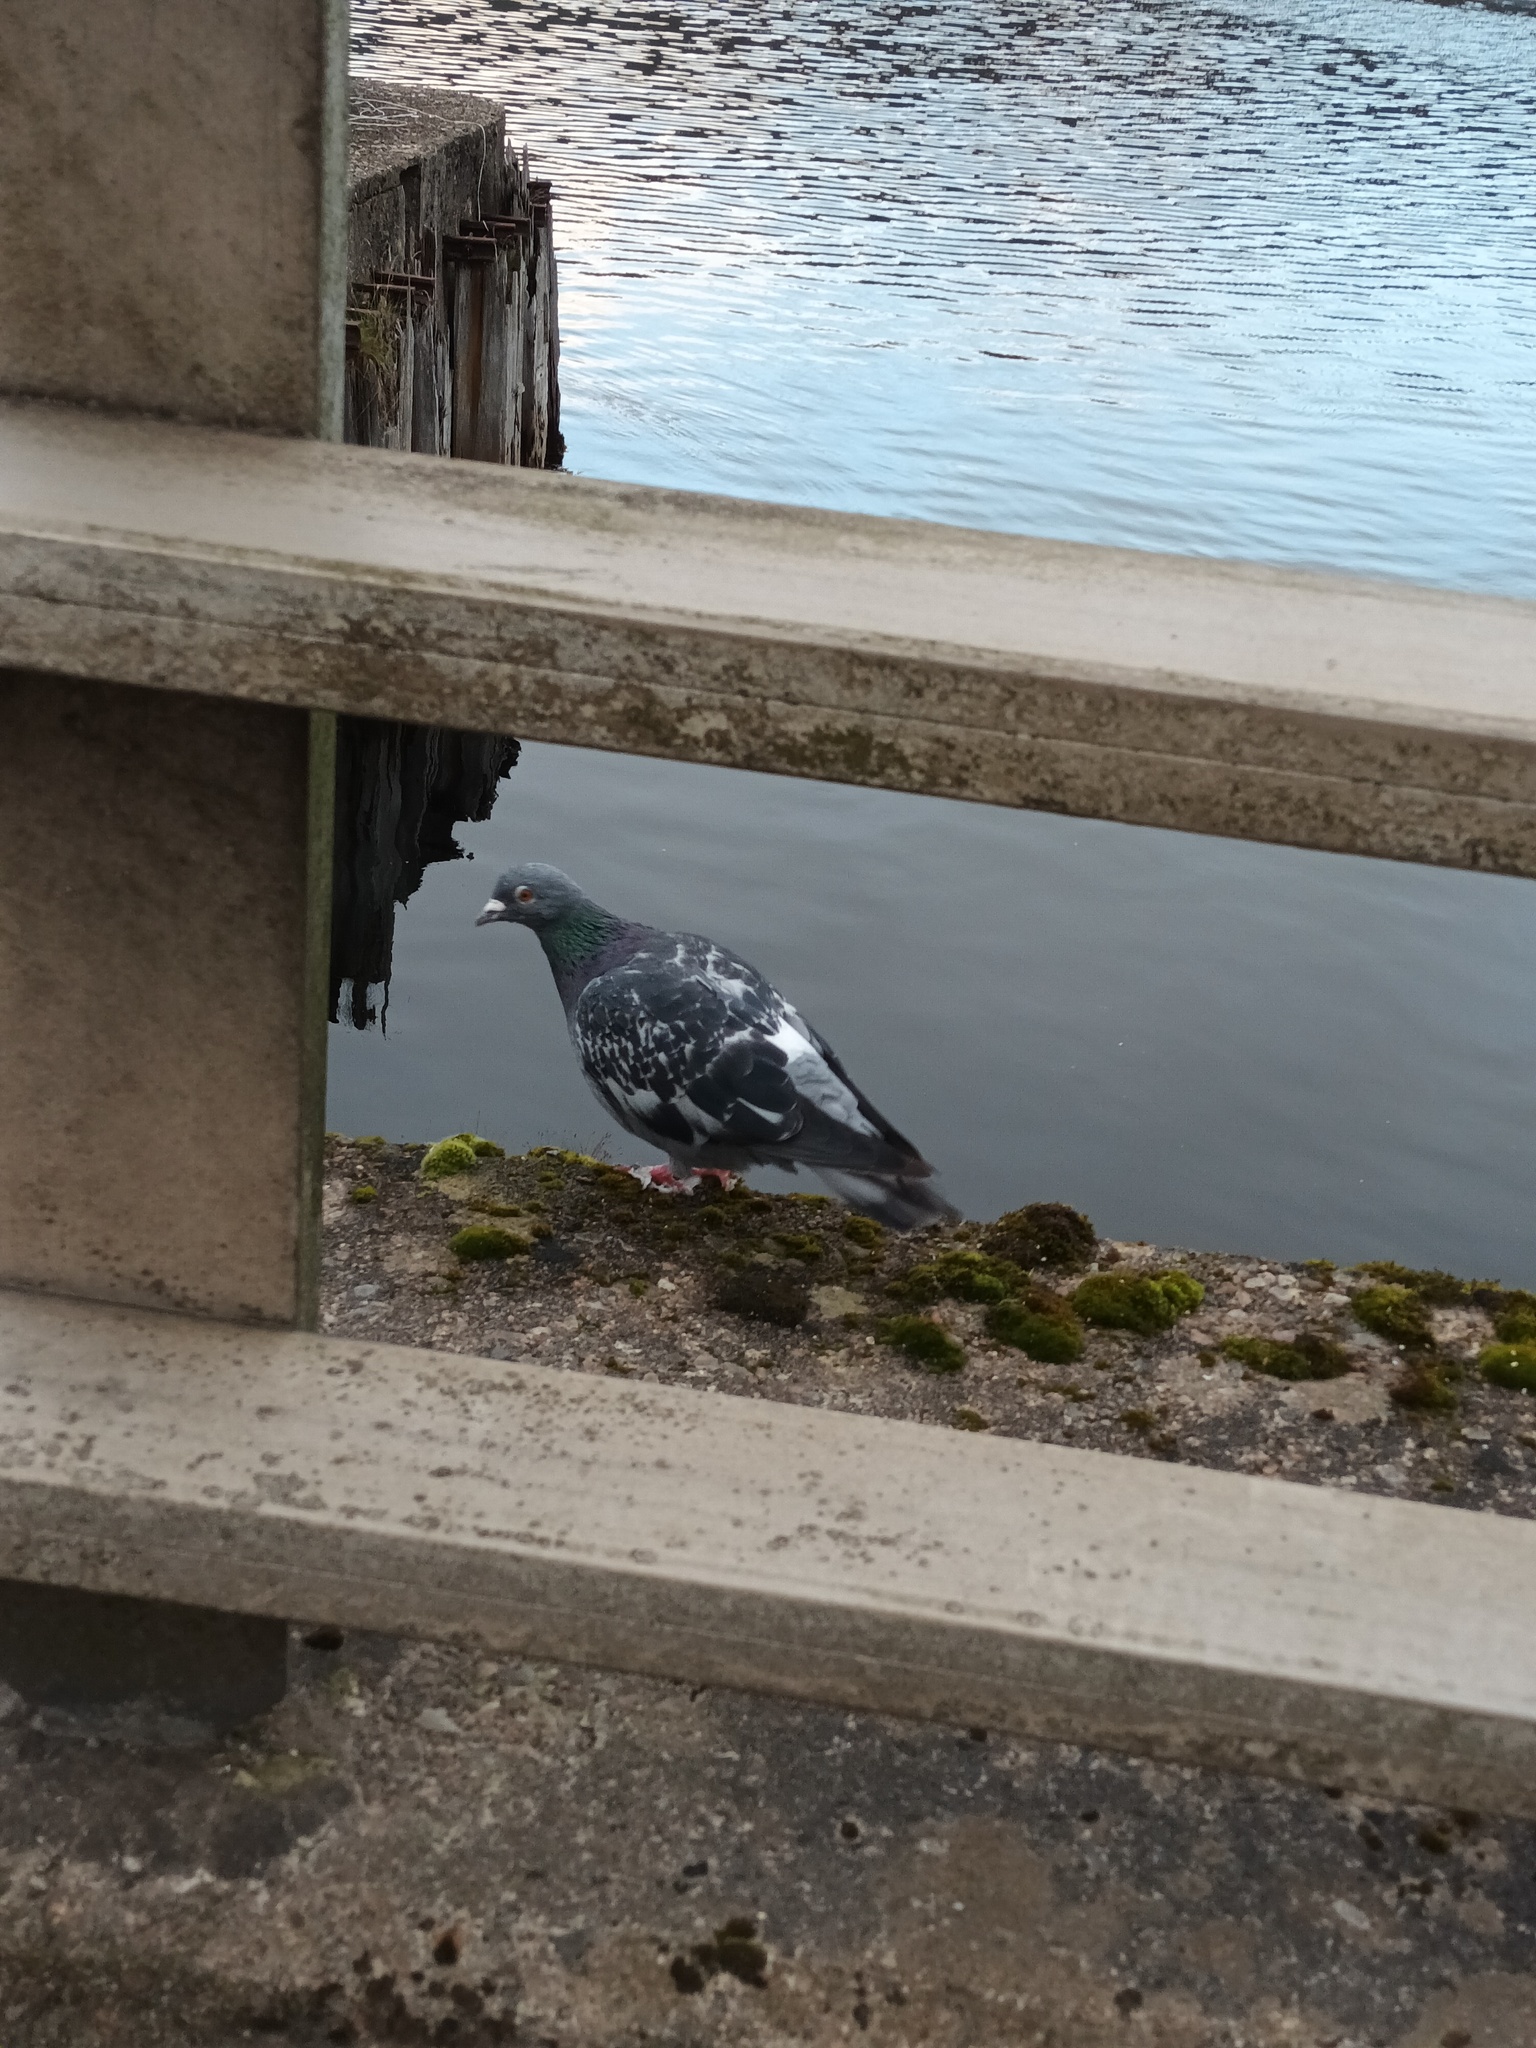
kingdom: Animalia
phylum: Chordata
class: Aves
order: Columbiformes
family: Columbidae
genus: Columba
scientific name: Columba livia
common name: Rock pigeon
